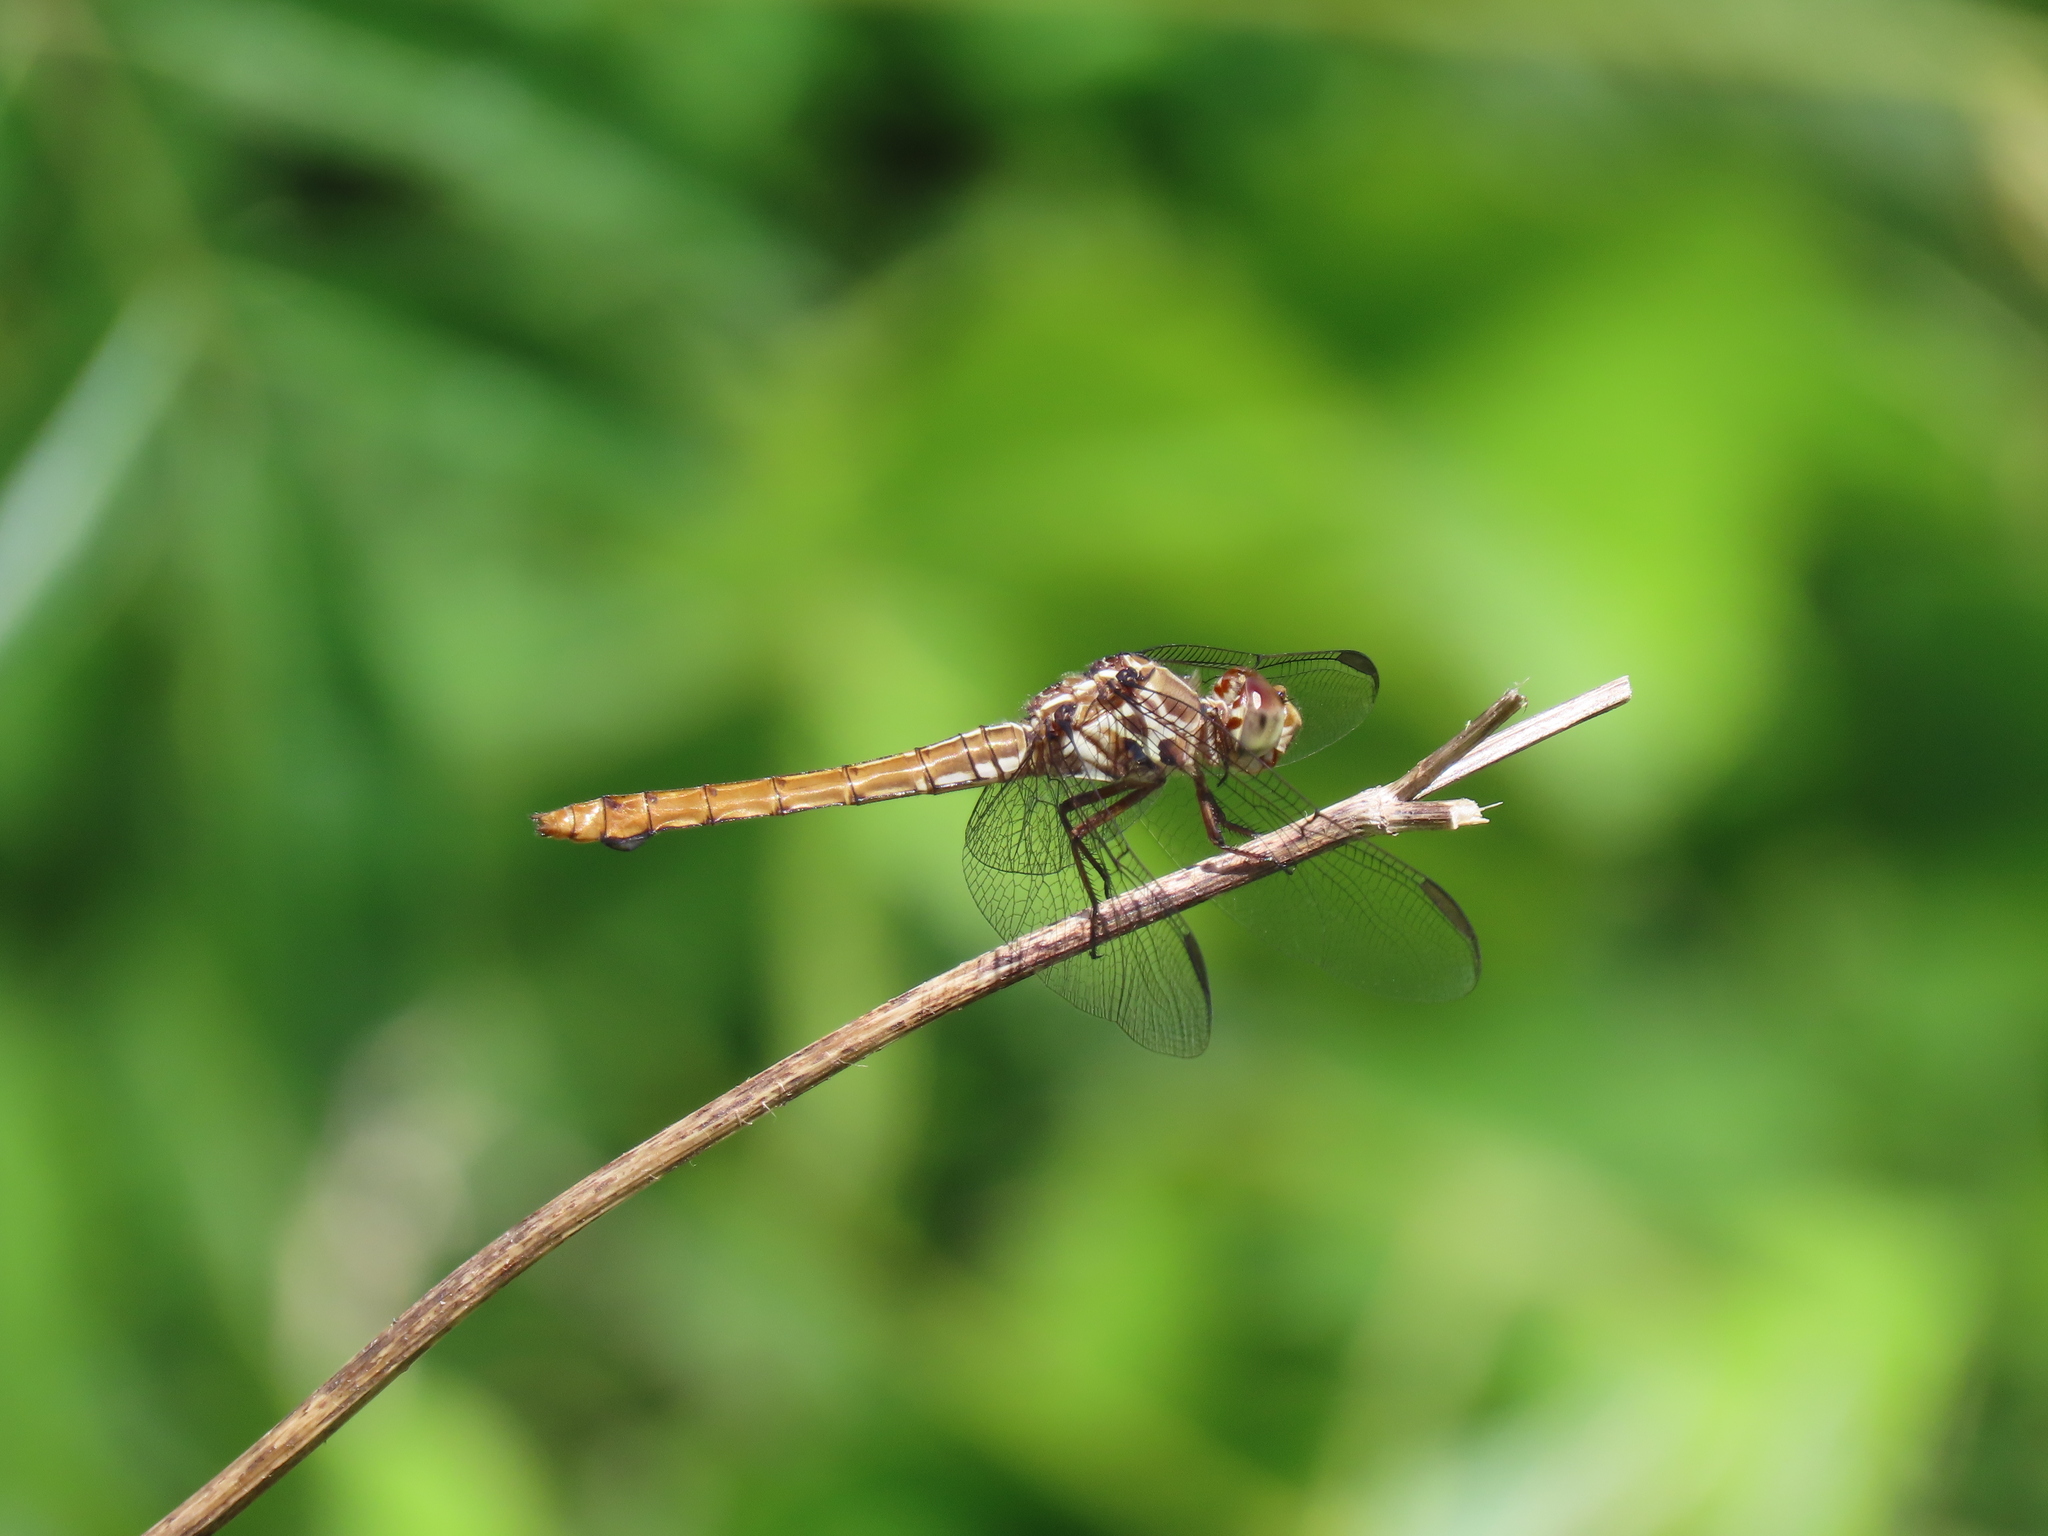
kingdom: Animalia
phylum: Arthropoda
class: Insecta
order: Odonata
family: Libellulidae
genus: Orthemis
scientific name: Orthemis ferruginea
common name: Roseate skimmer
